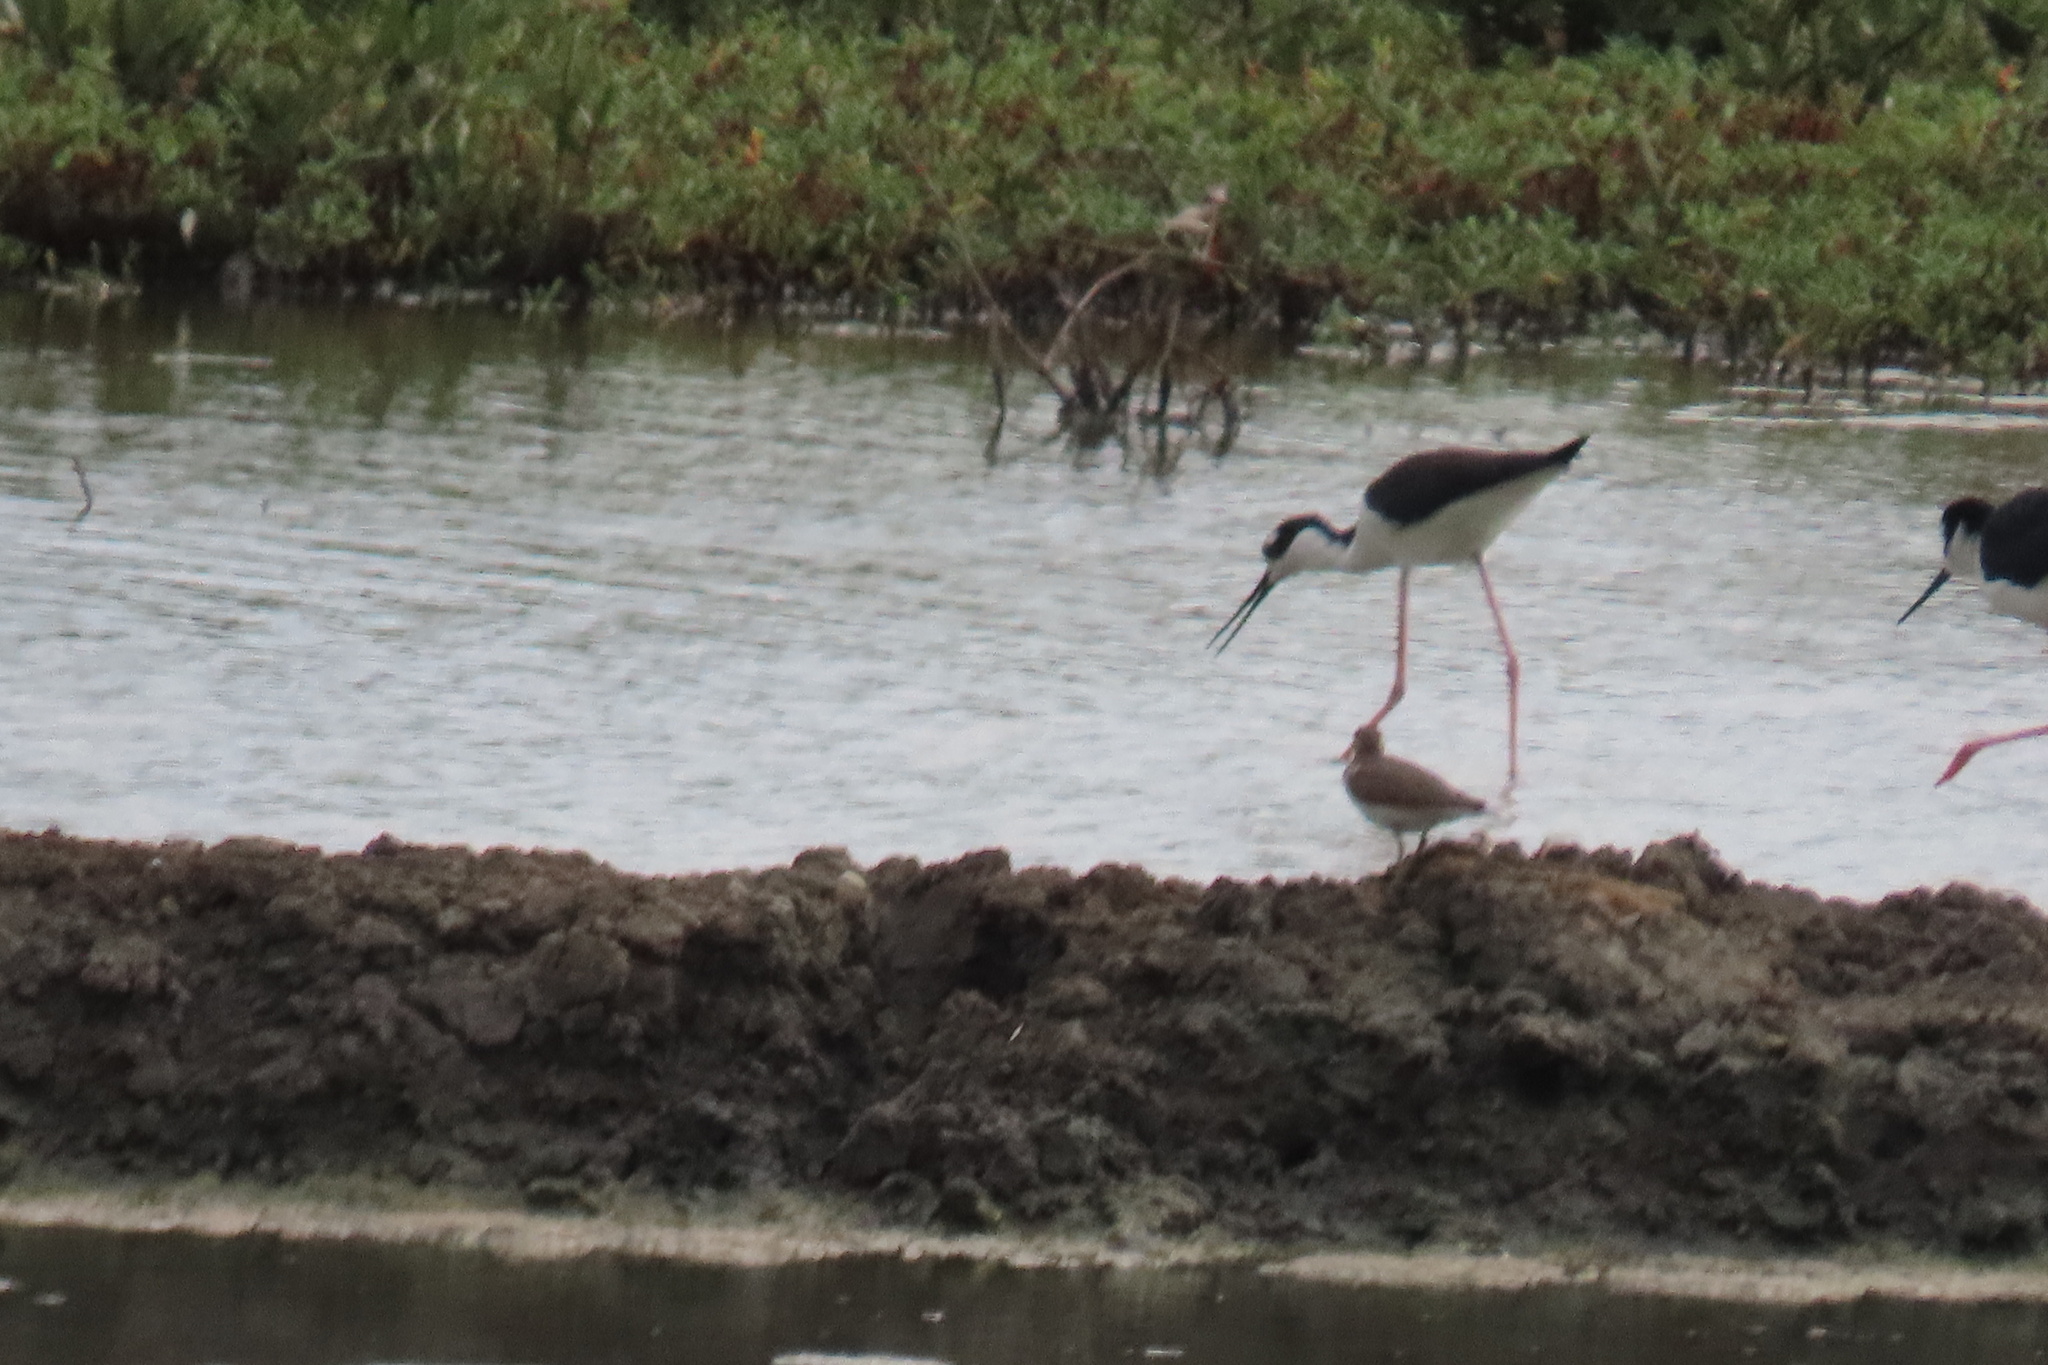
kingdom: Animalia
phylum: Chordata
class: Aves
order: Charadriiformes
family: Recurvirostridae
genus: Himantopus
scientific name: Himantopus mexicanus
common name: Black-necked stilt
